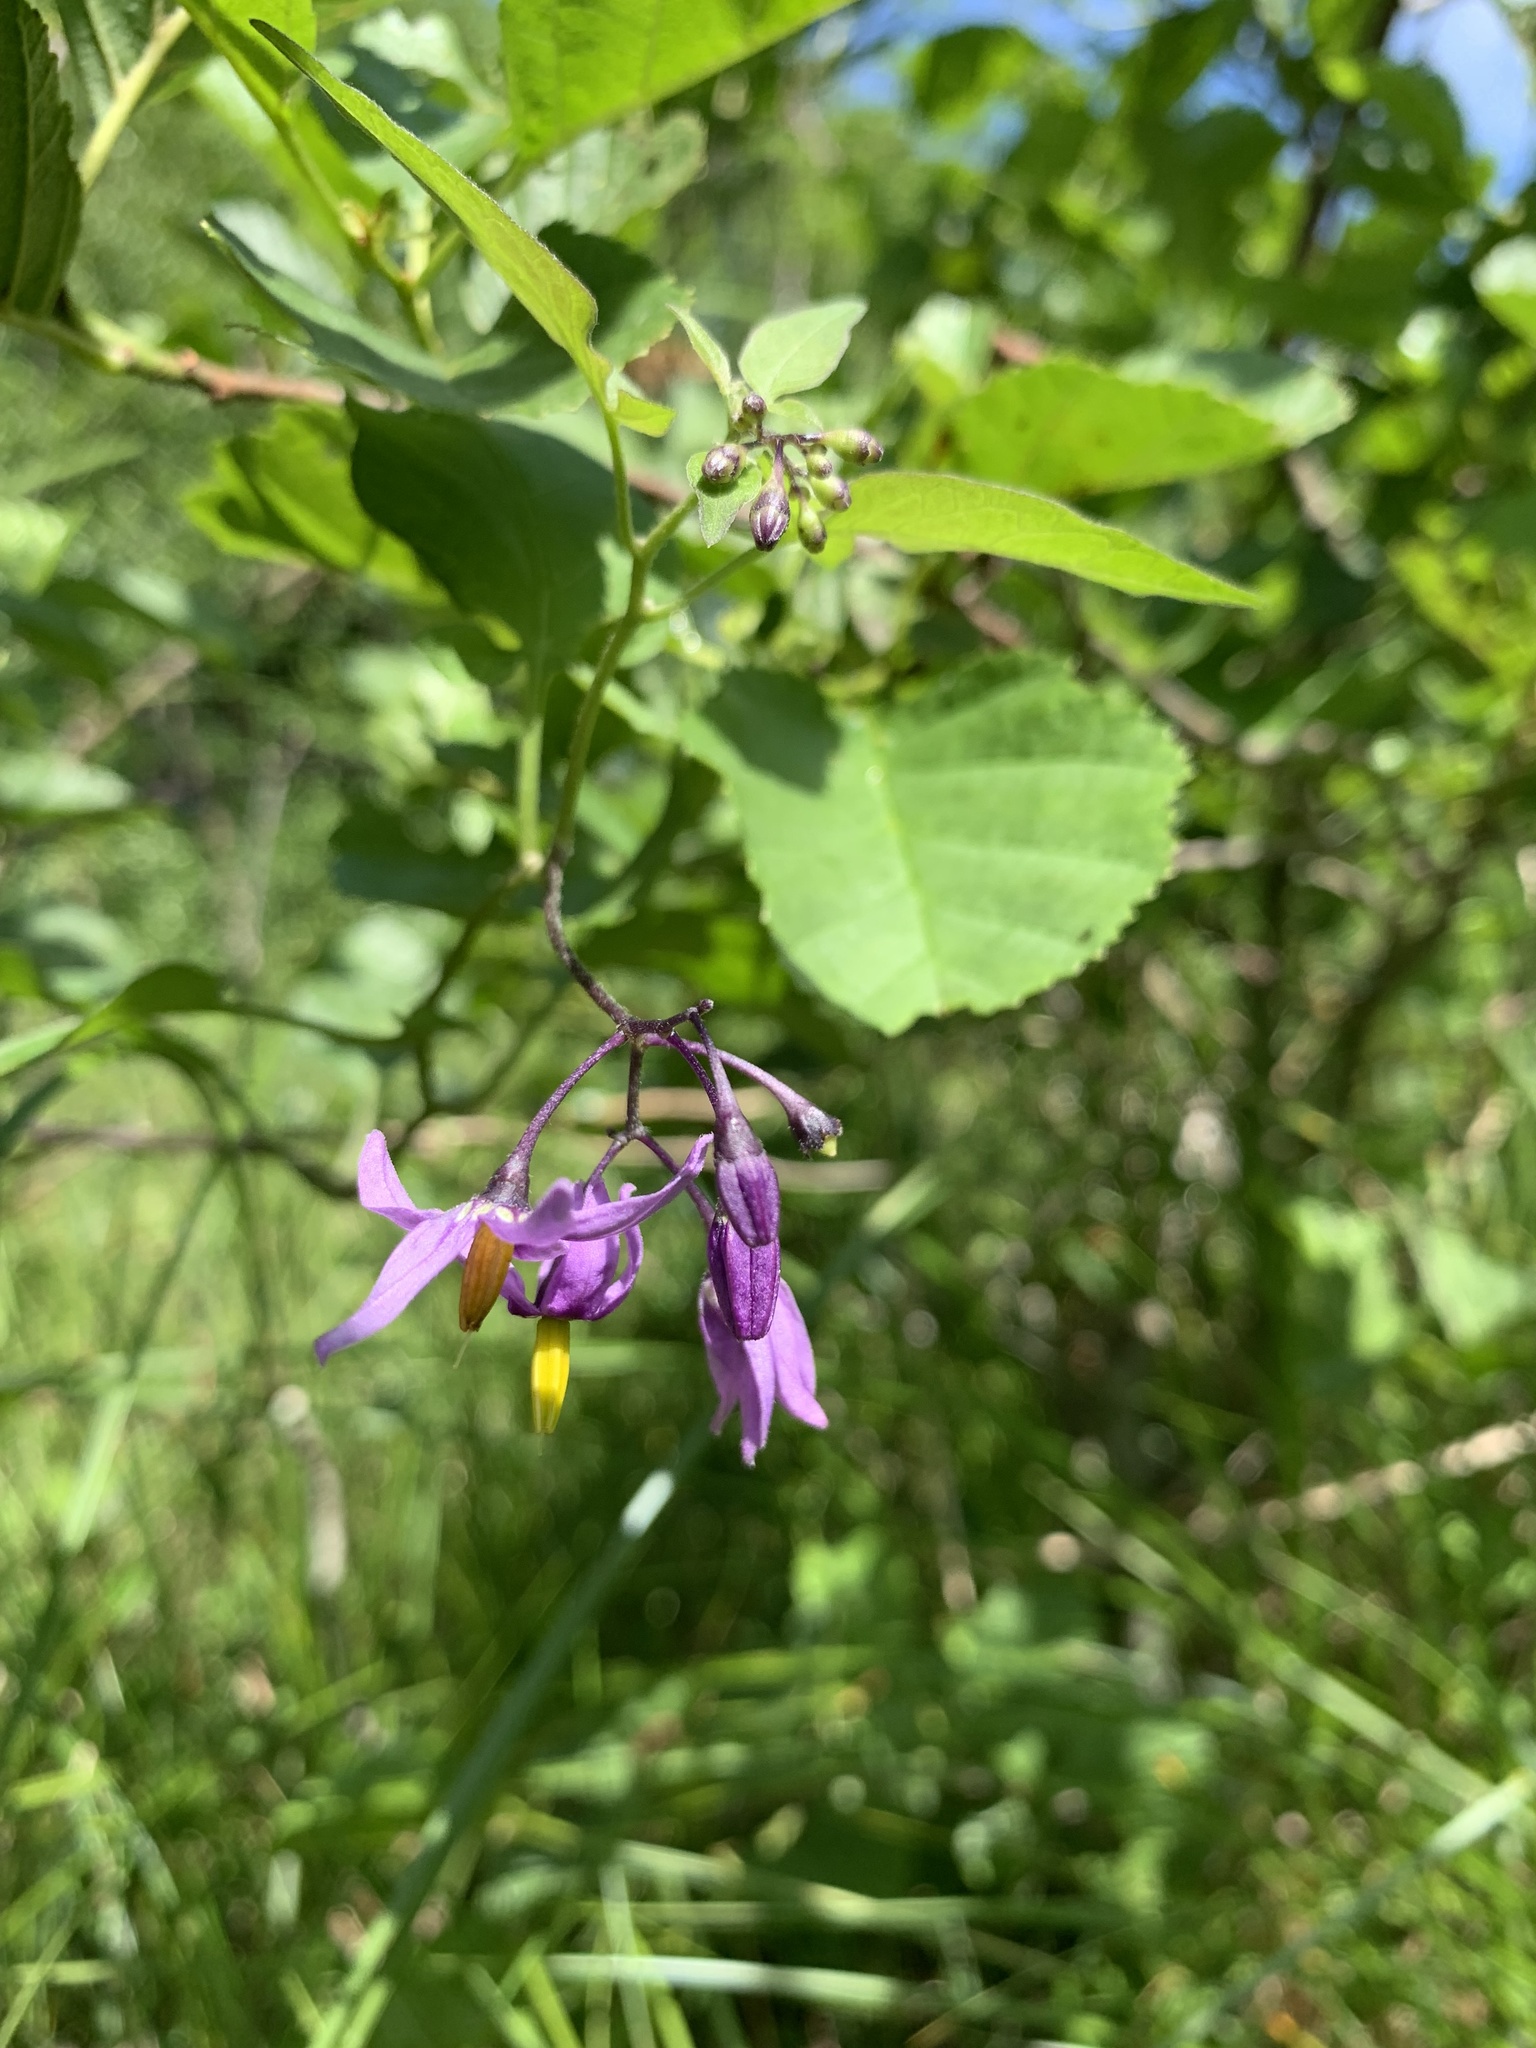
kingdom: Plantae
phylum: Tracheophyta
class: Magnoliopsida
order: Solanales
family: Solanaceae
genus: Solanum
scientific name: Solanum dulcamara
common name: Climbing nightshade
